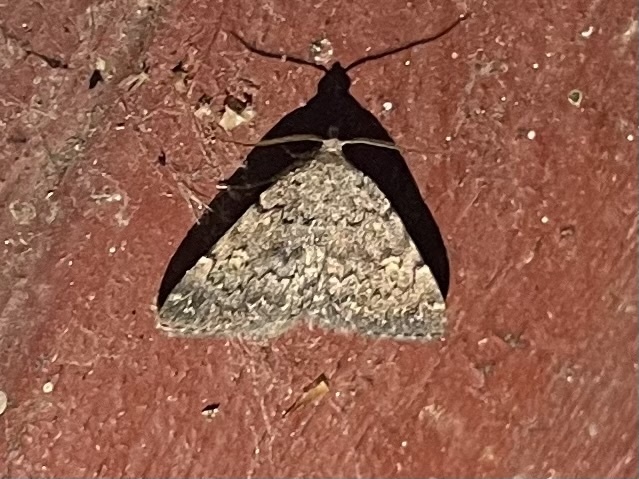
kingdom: Animalia
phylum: Arthropoda
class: Insecta
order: Lepidoptera
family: Erebidae
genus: Idia
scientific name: Idia aemula
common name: Common idia moth
